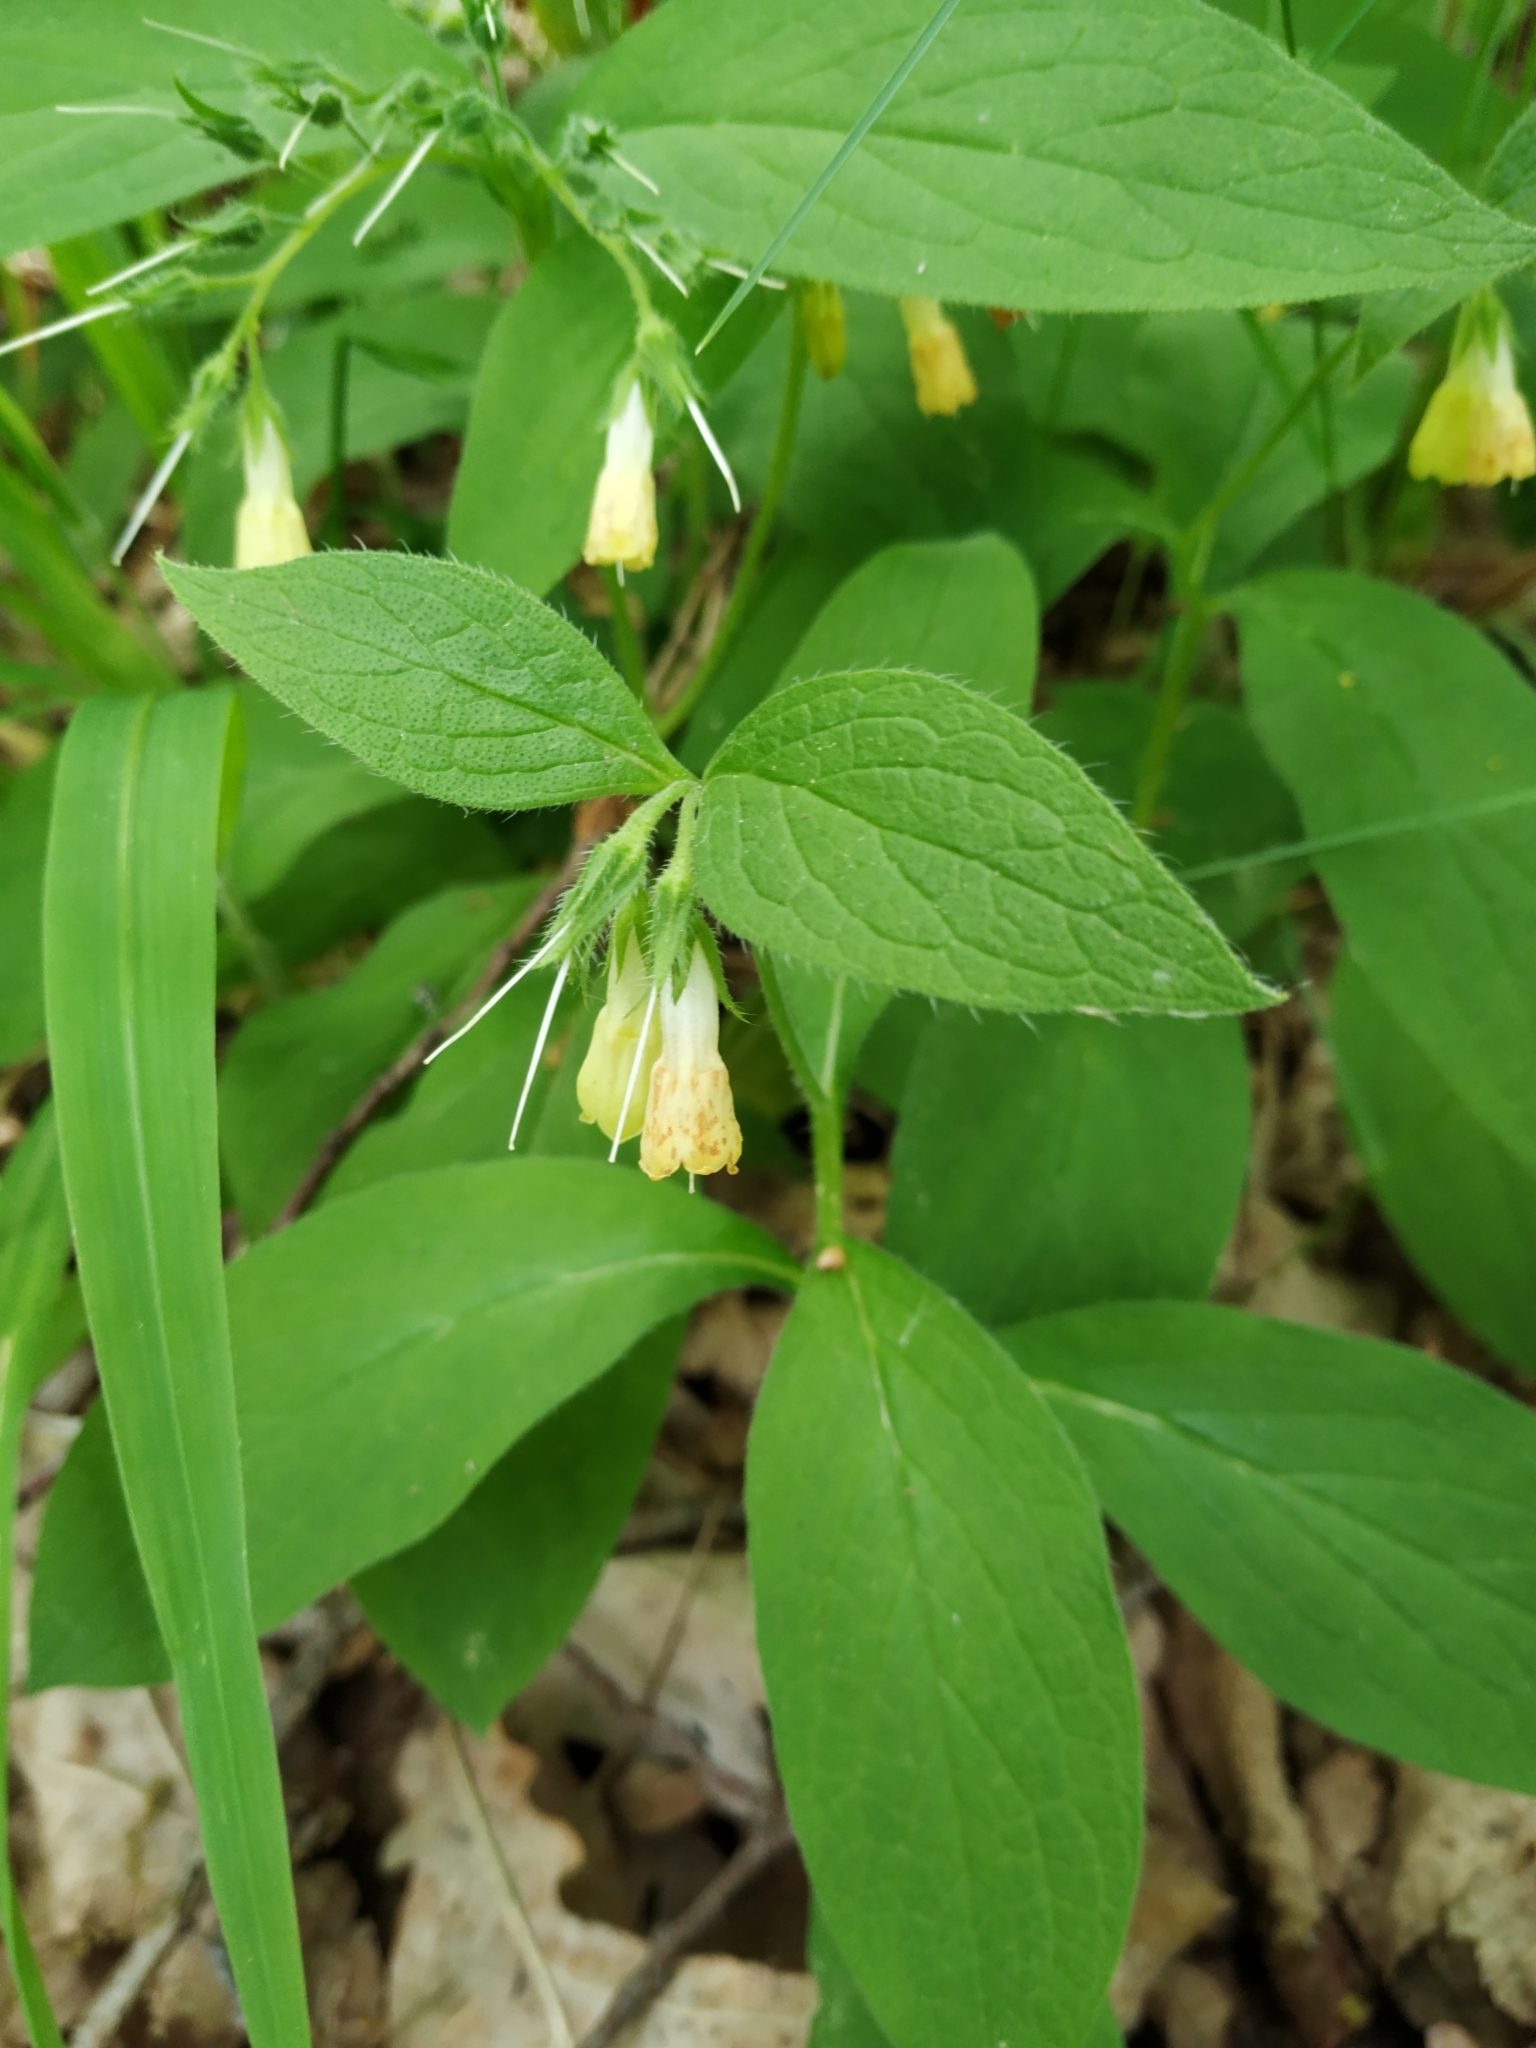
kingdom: Plantae
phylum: Tracheophyta
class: Magnoliopsida
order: Boraginales
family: Boraginaceae
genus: Symphytum
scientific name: Symphytum tuberosum
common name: Tuberous comfrey
